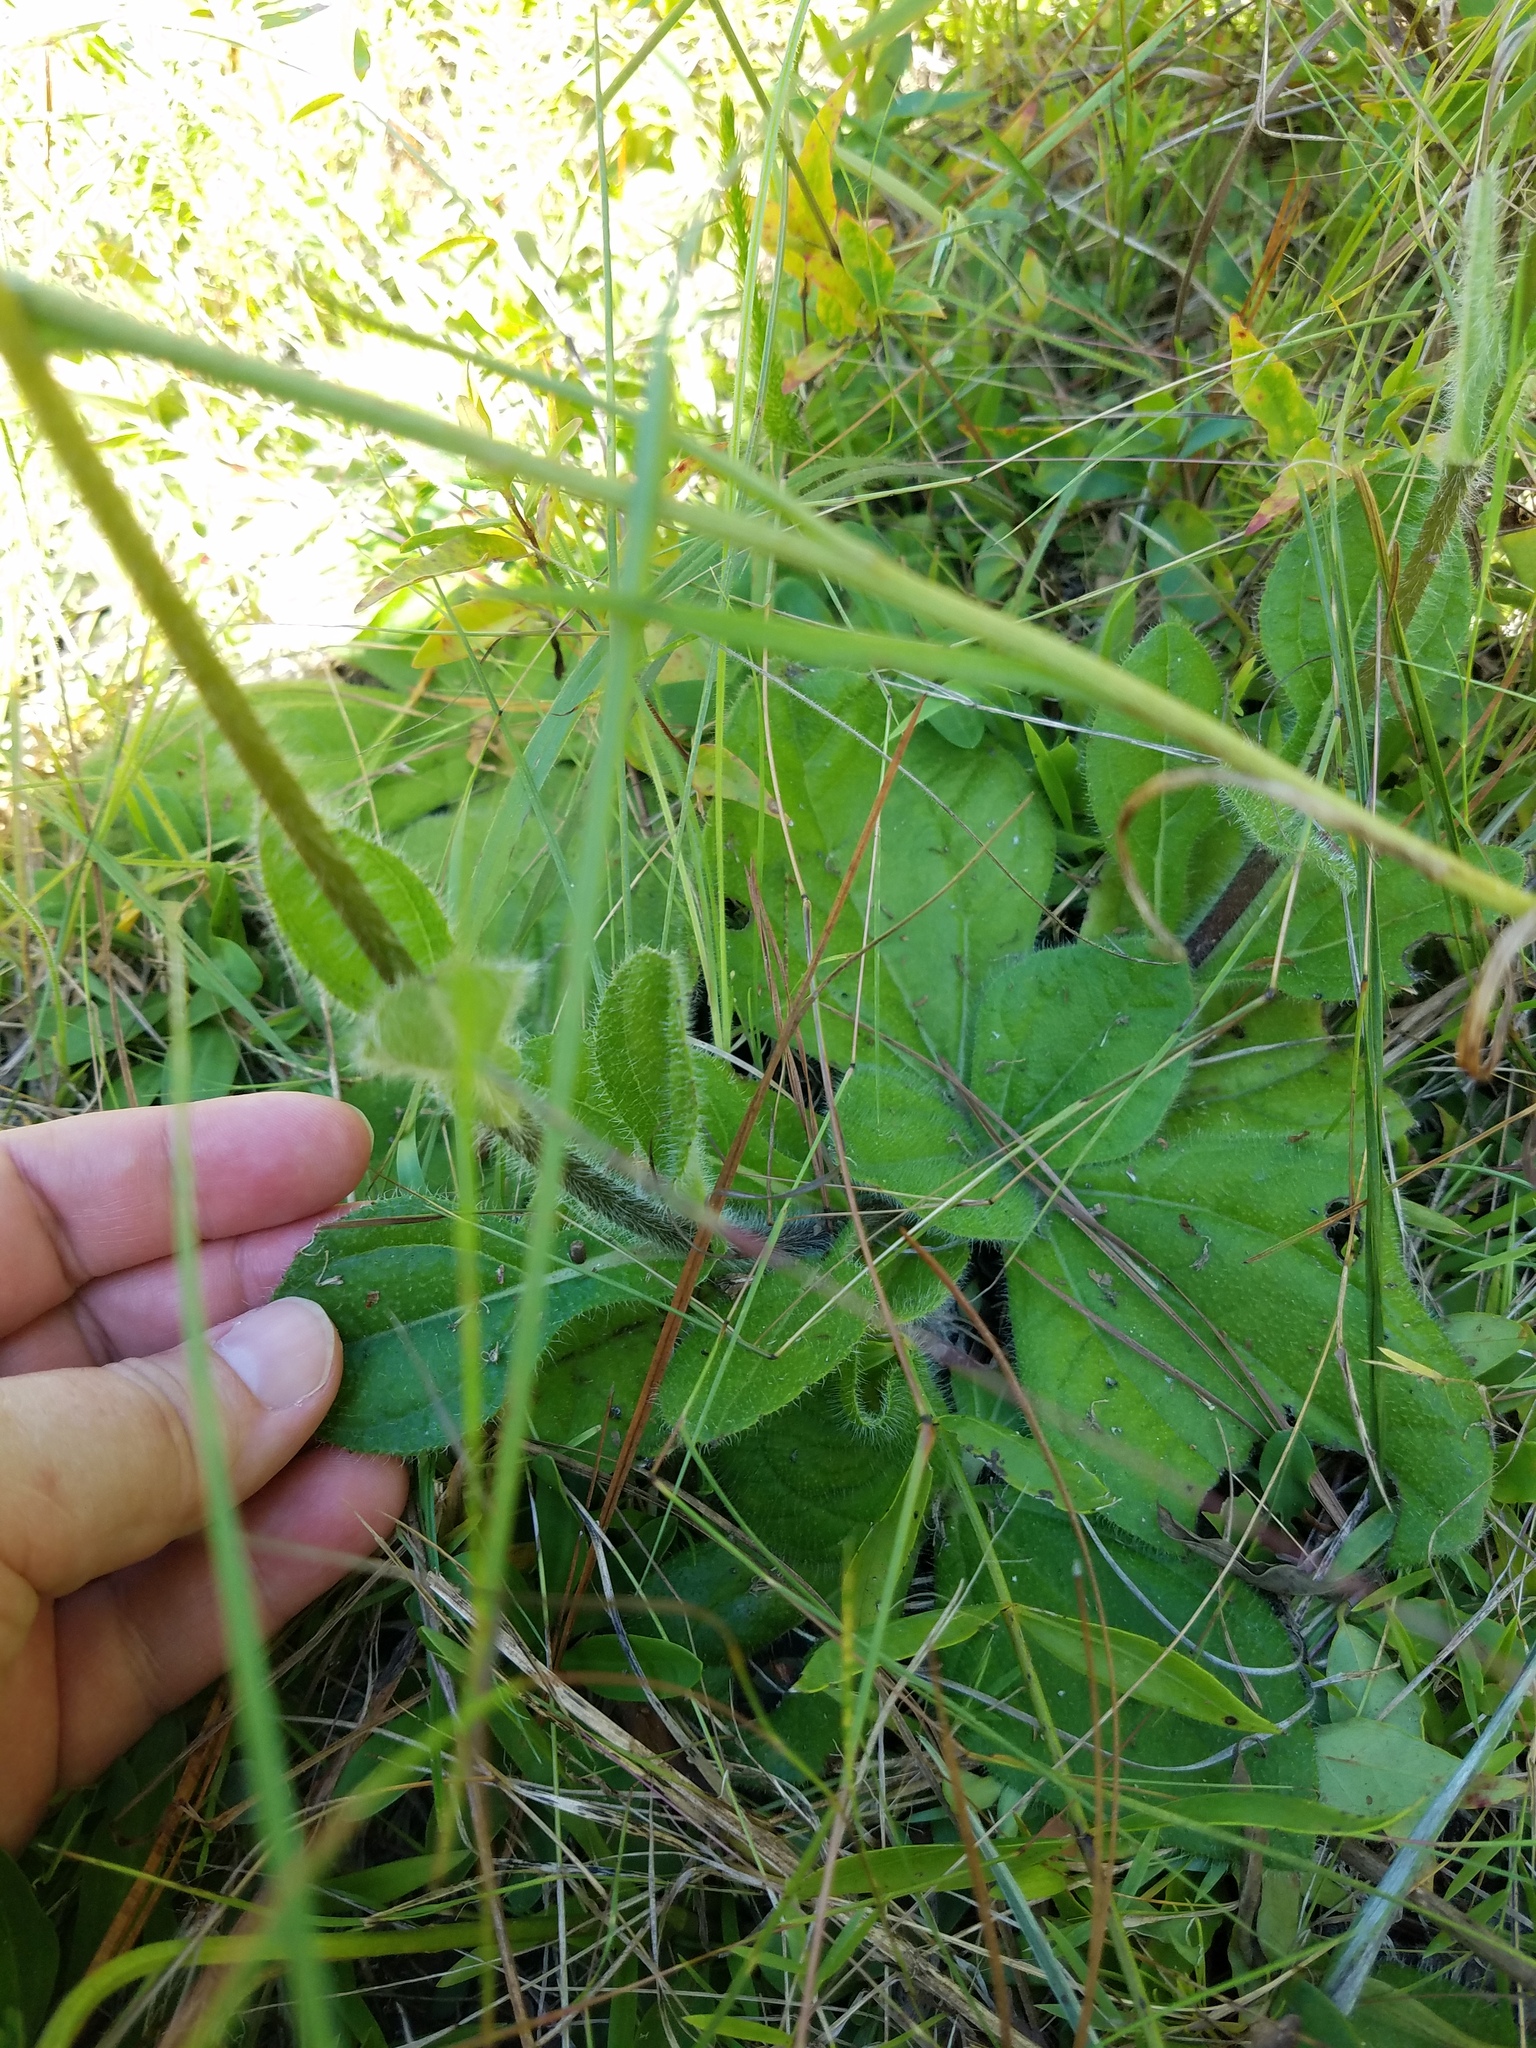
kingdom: Plantae
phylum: Tracheophyta
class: Magnoliopsida
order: Asterales
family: Asteraceae
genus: Helianthus
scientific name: Helianthus radula
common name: Pineland sunflower
